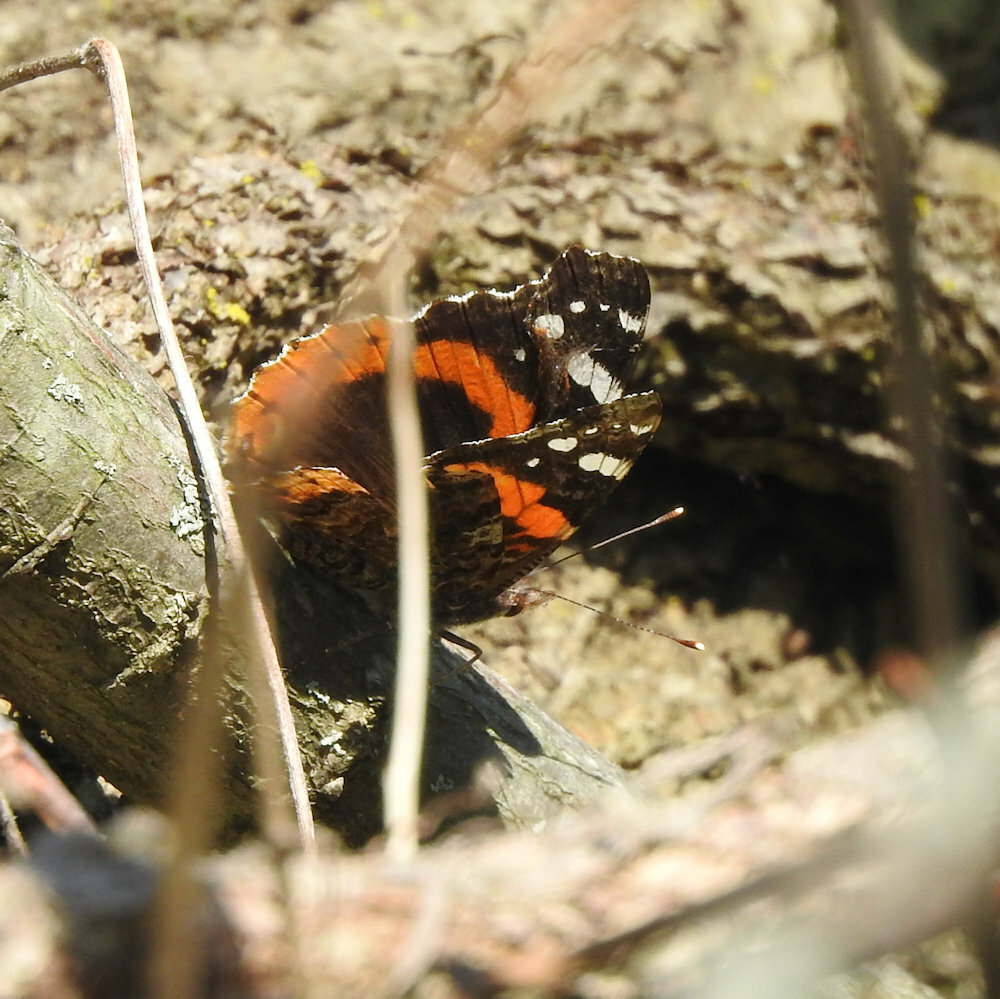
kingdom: Animalia
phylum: Arthropoda
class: Insecta
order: Lepidoptera
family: Nymphalidae
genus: Vanessa
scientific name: Vanessa atalanta
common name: Red admiral
